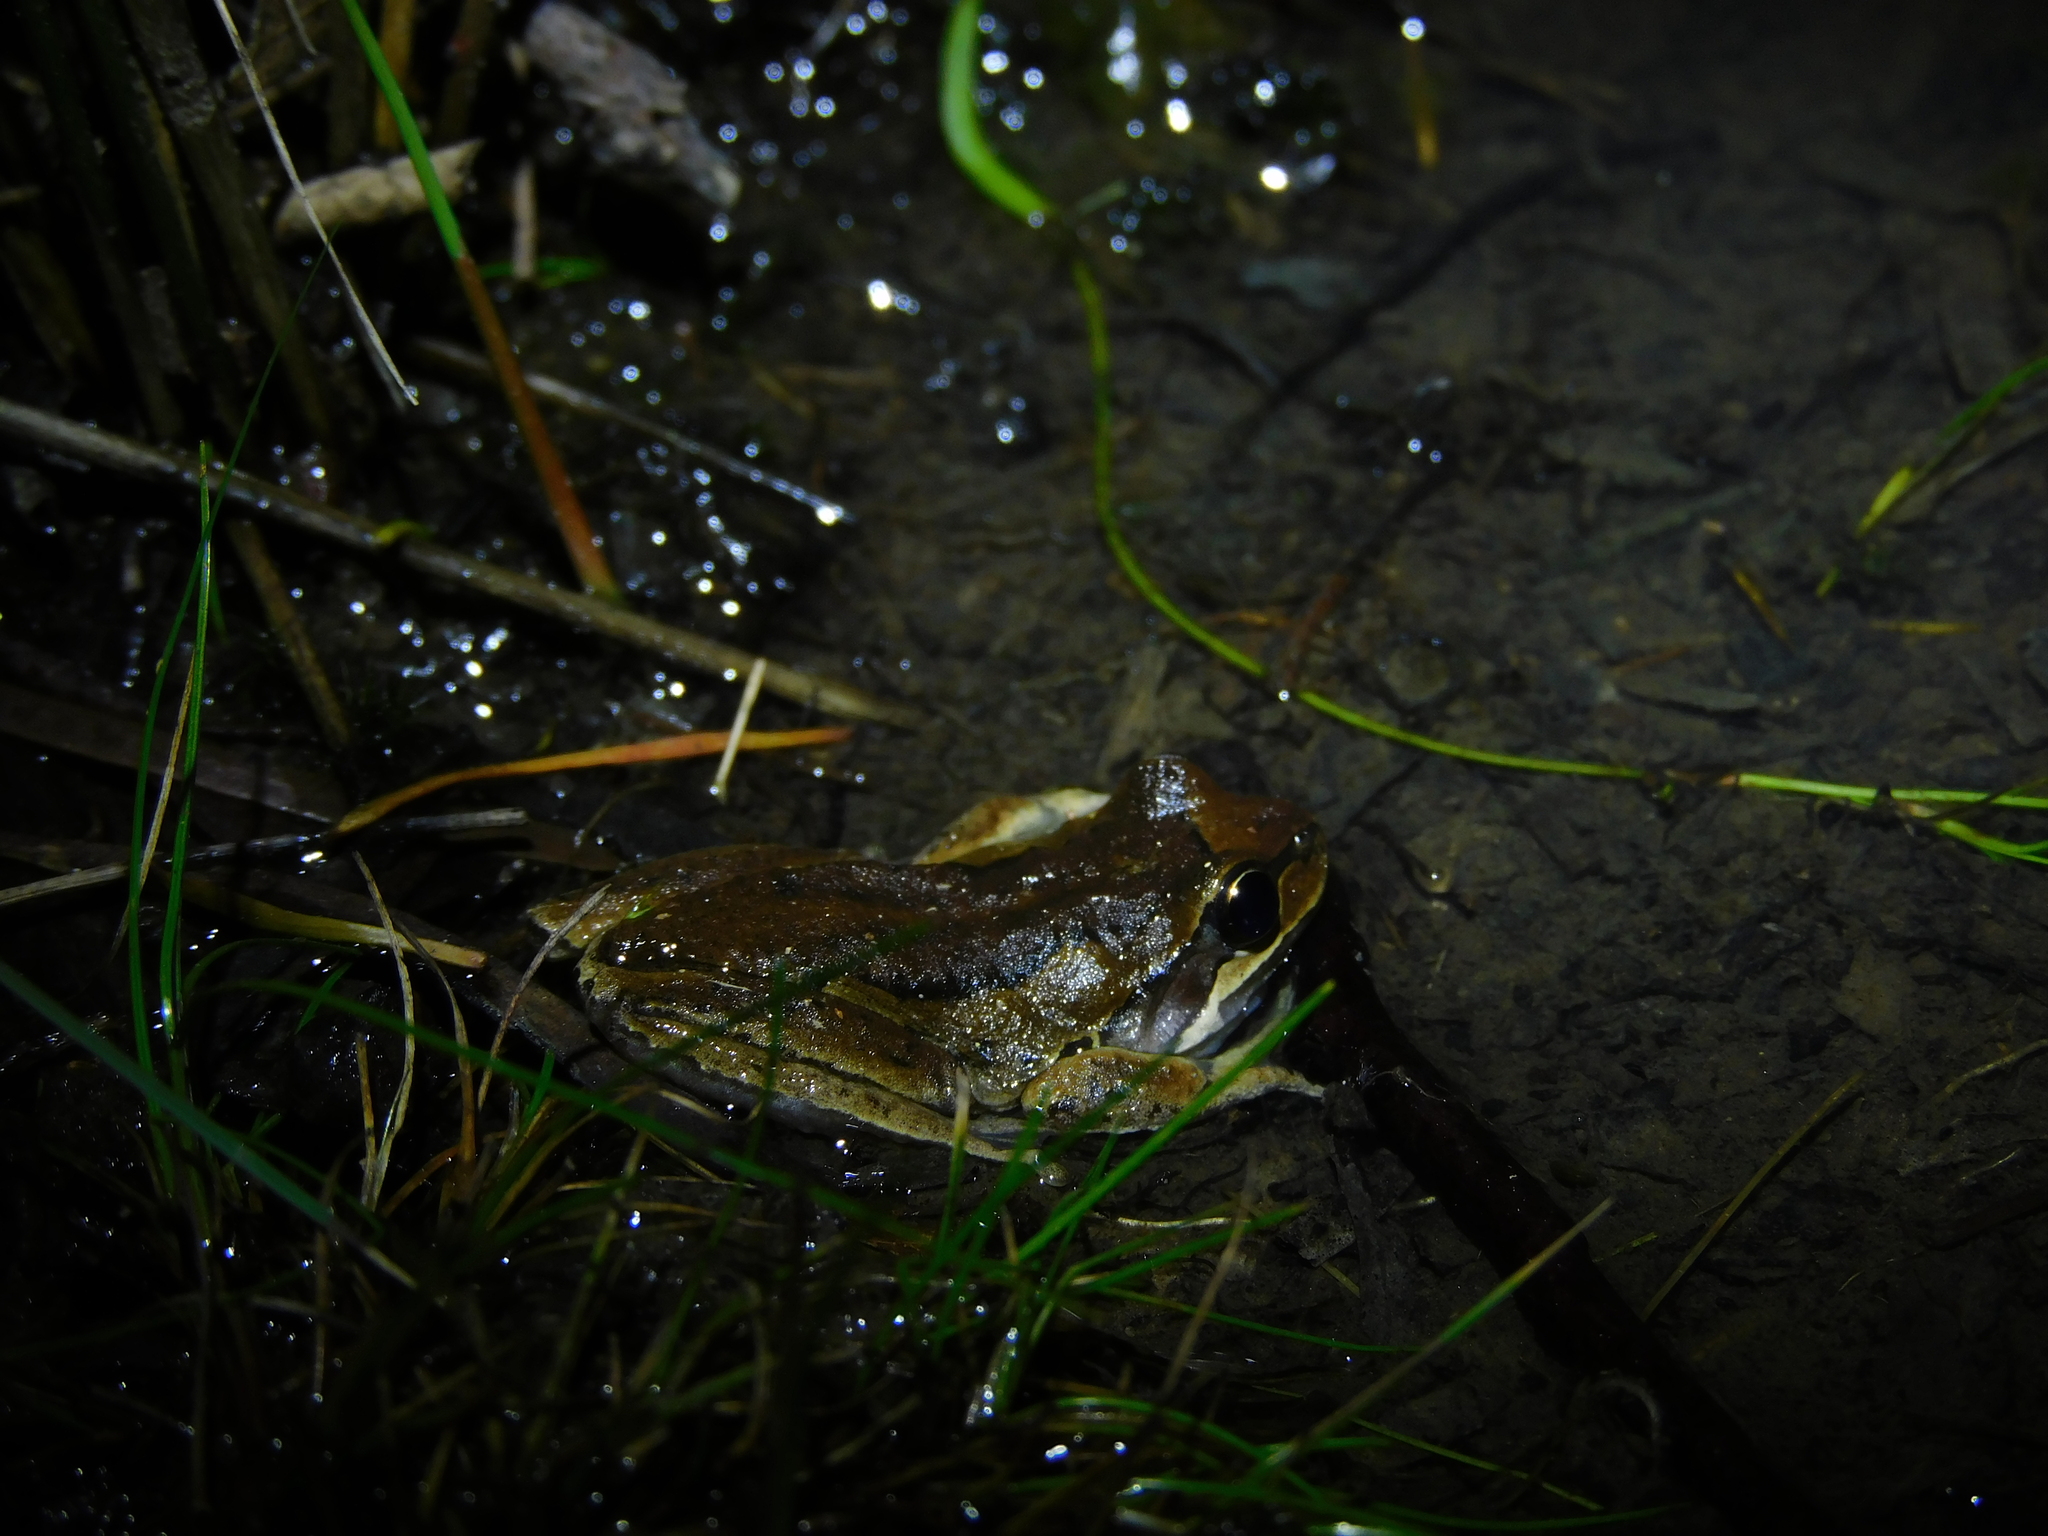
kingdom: Animalia
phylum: Chordata
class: Amphibia
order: Anura
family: Pelodryadidae
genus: Litoria
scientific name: Litoria ewingii
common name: Southern brown tree frog
